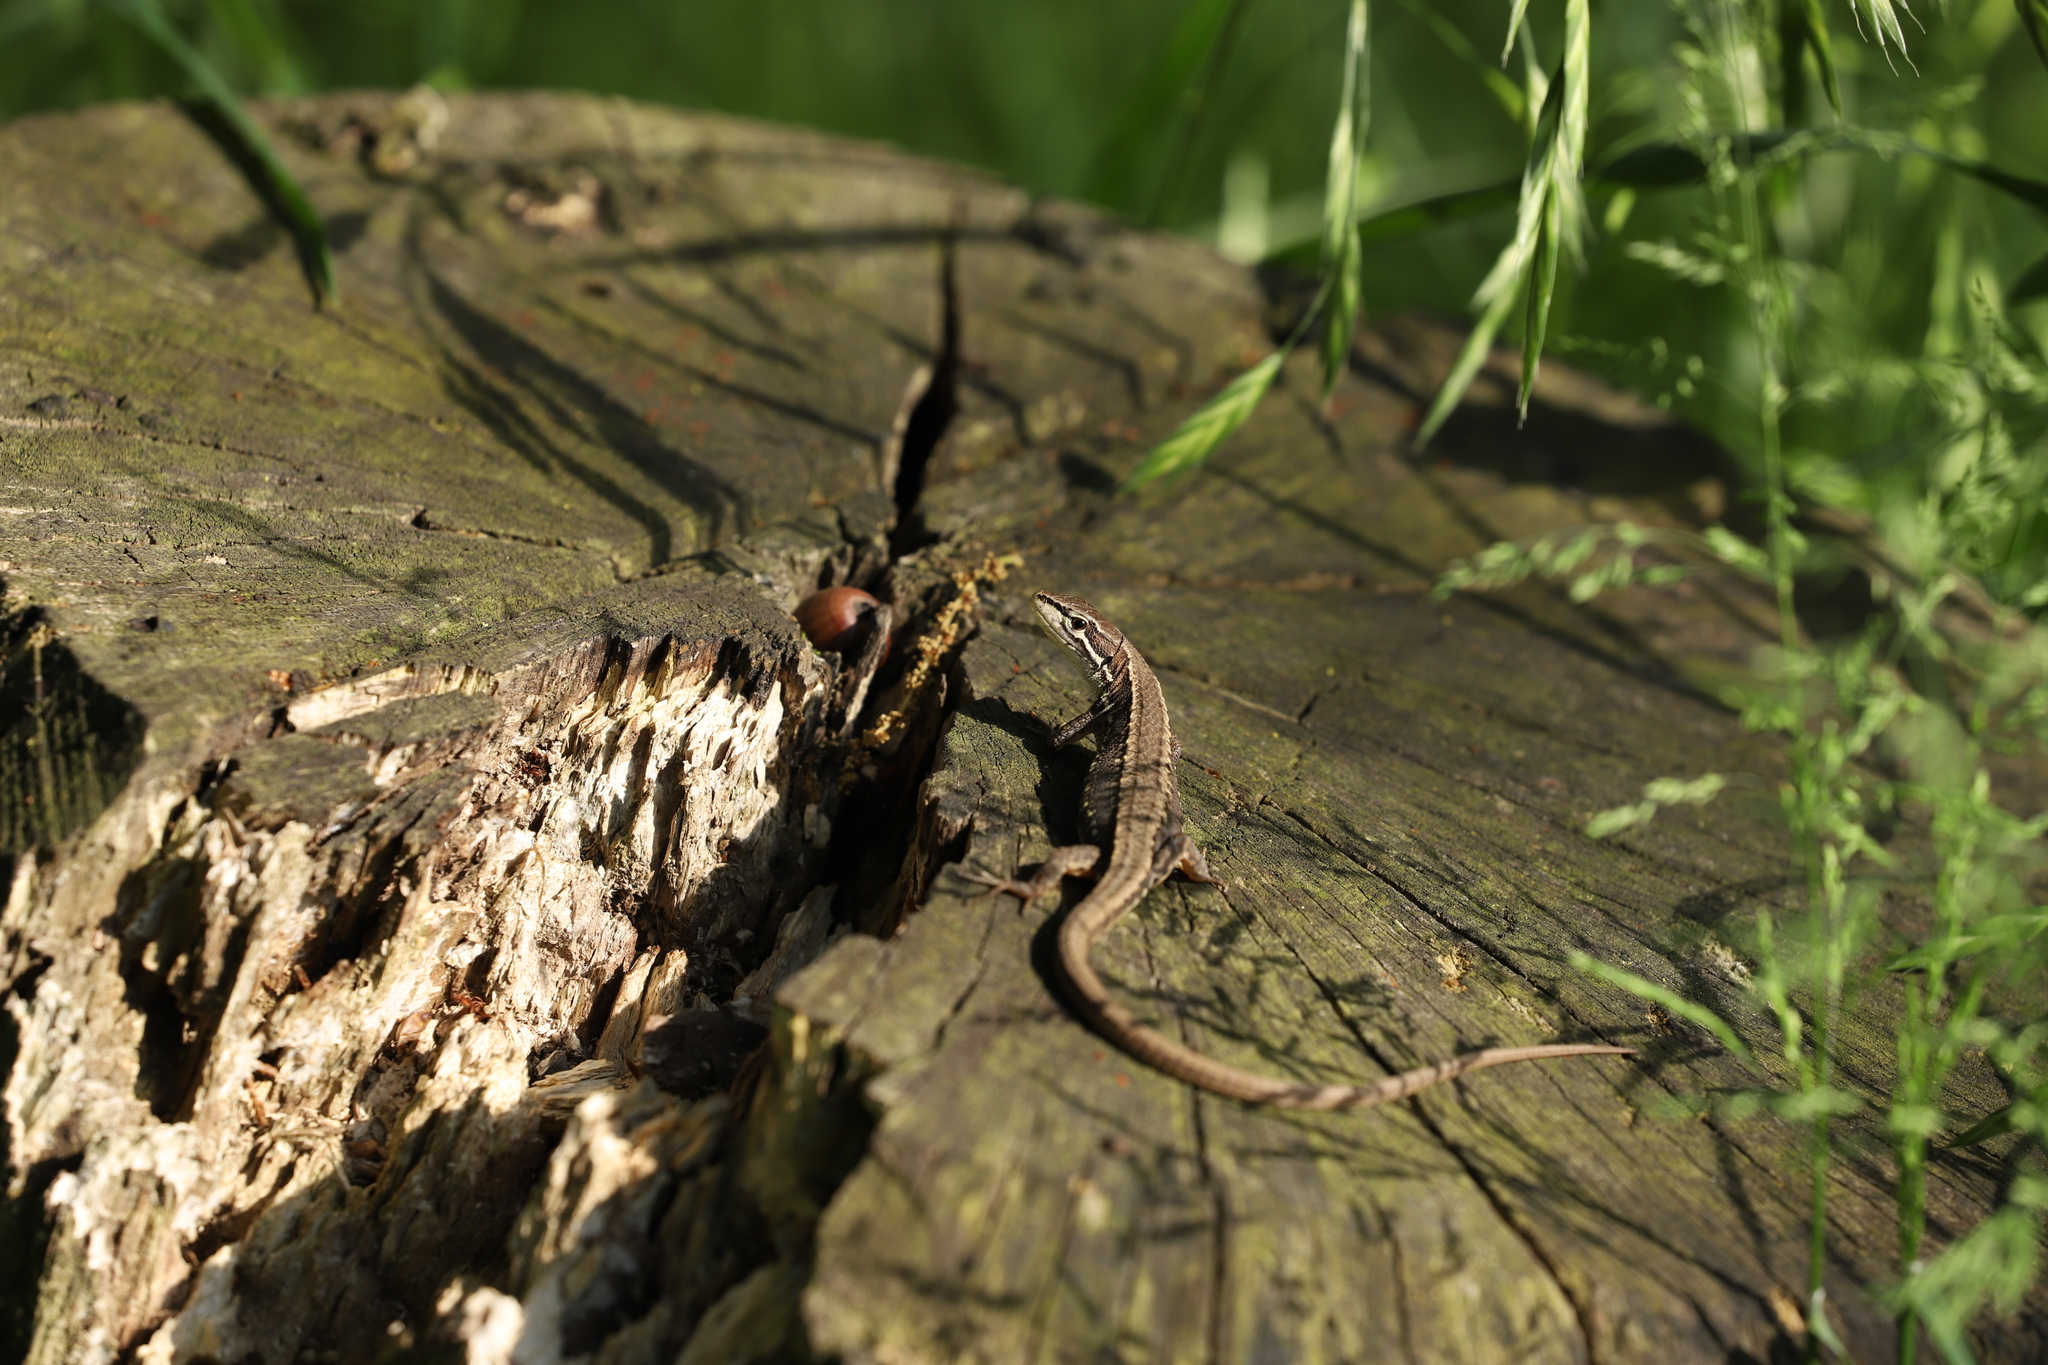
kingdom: Animalia
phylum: Chordata
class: Squamata
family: Lacertidae
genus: Takydromus
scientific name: Takydromus tachydromoides
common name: Japanese grass lizard
